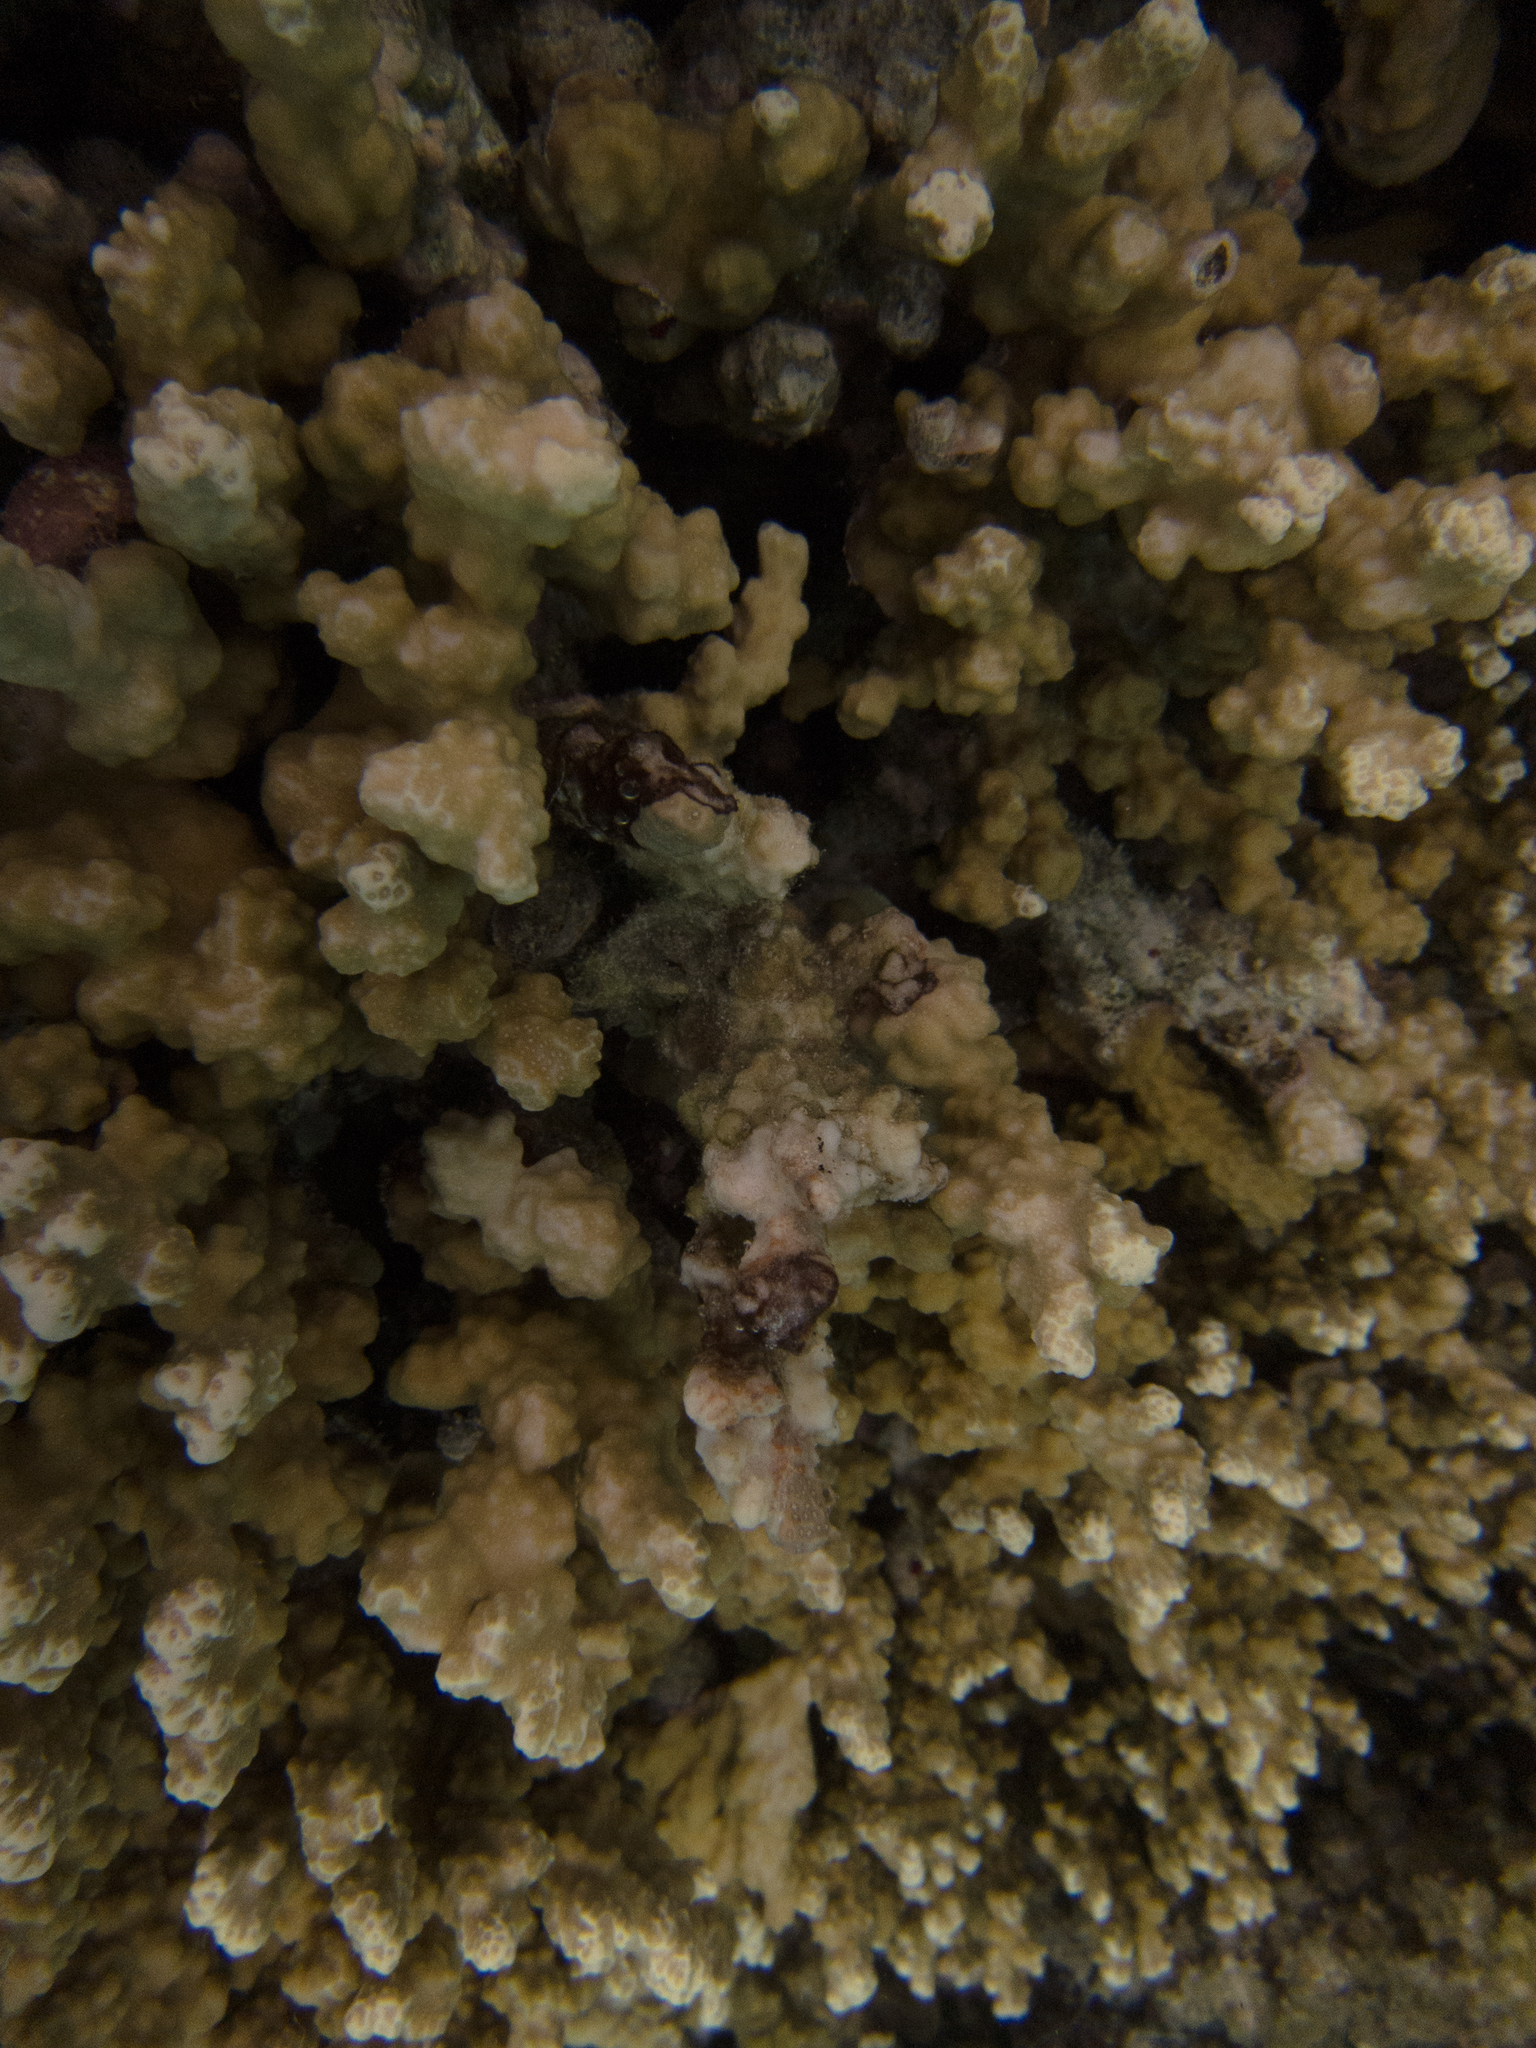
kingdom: Animalia
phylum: Cnidaria
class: Anthozoa
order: Scleractinia
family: Poritidae
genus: Porites
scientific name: Porites rus
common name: Hump coral
